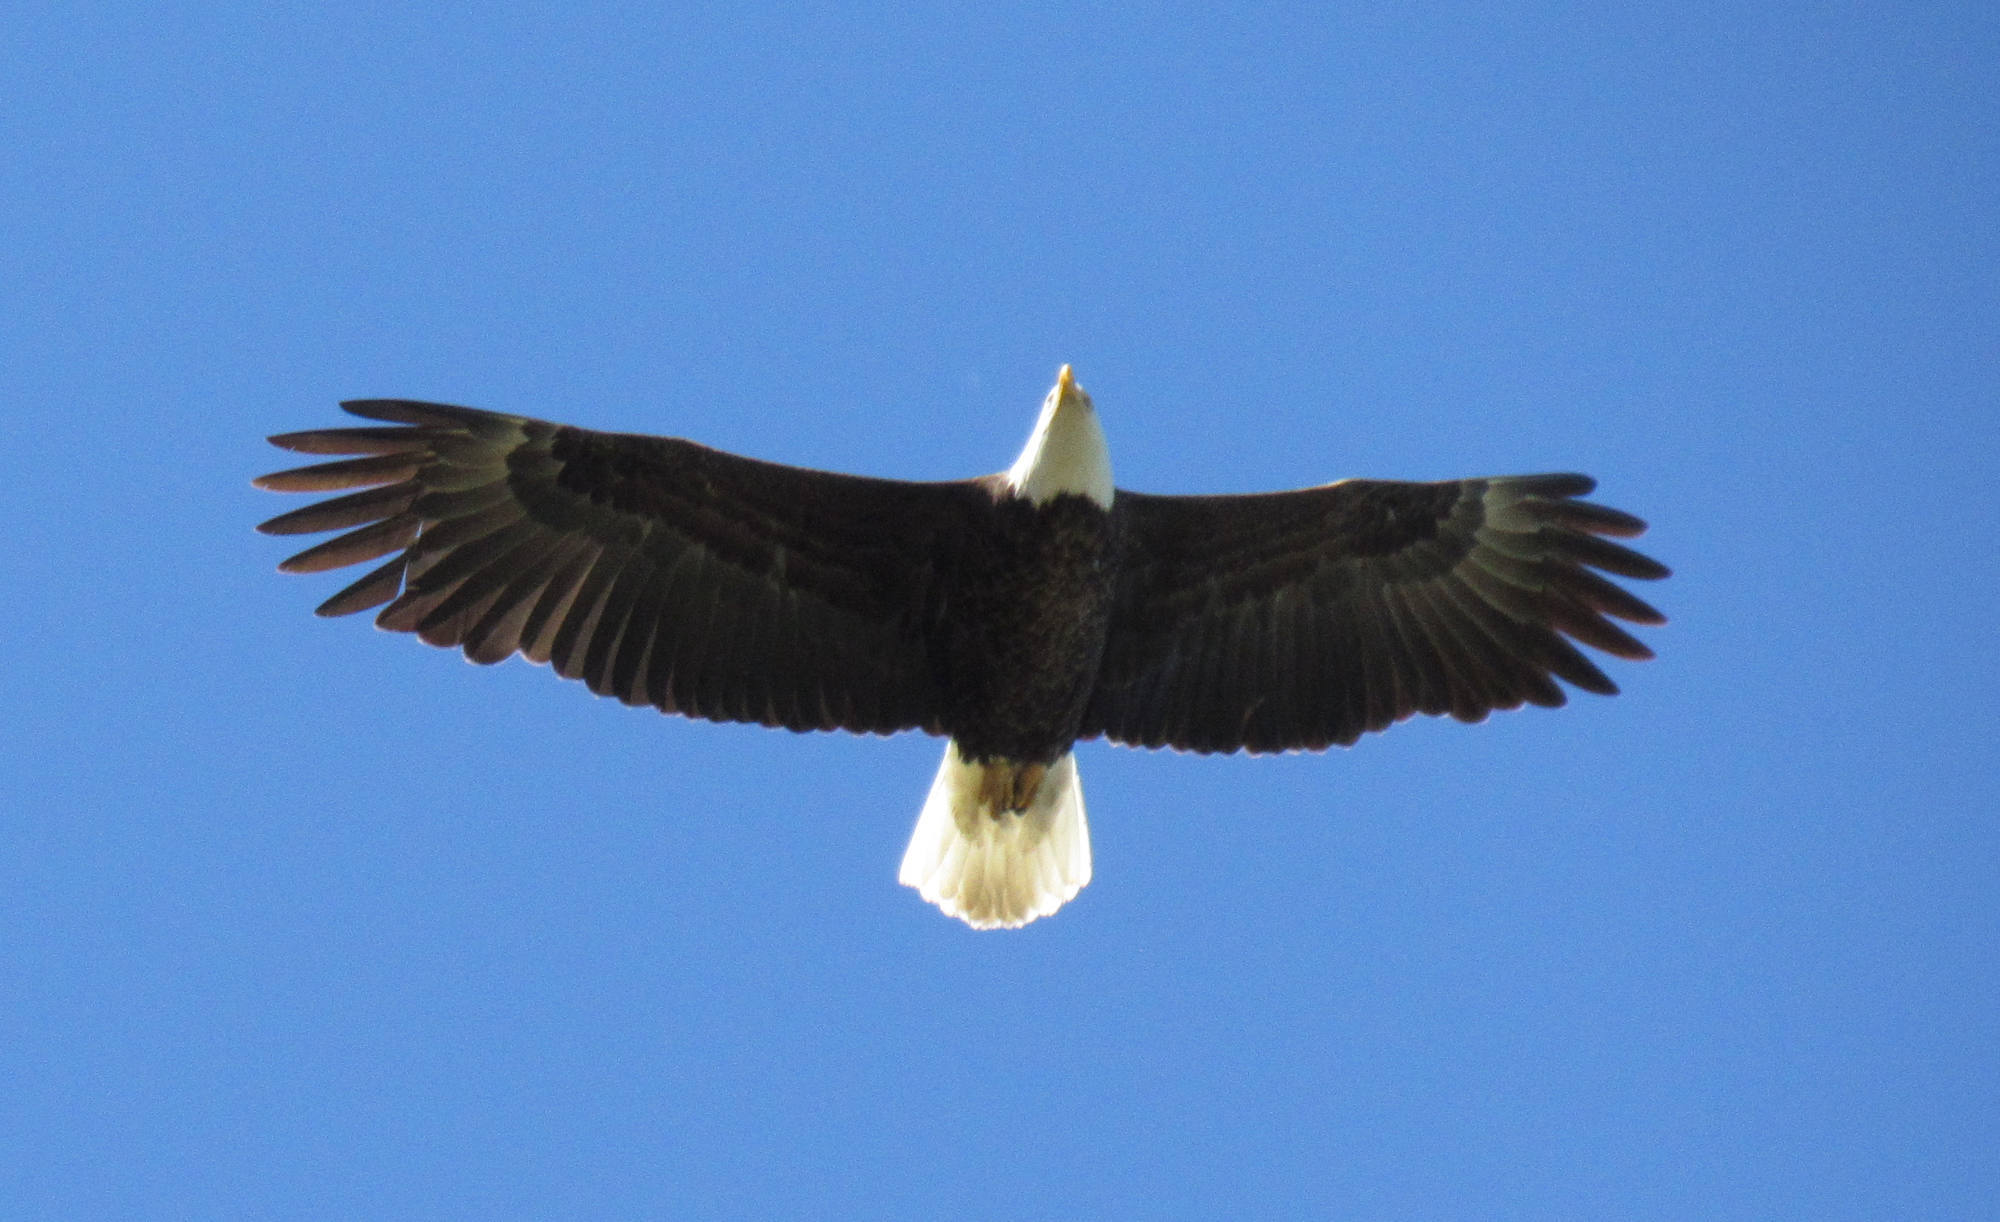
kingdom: Animalia
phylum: Chordata
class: Aves
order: Accipitriformes
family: Accipitridae
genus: Haliaeetus
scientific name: Haliaeetus leucocephalus
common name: Bald eagle
